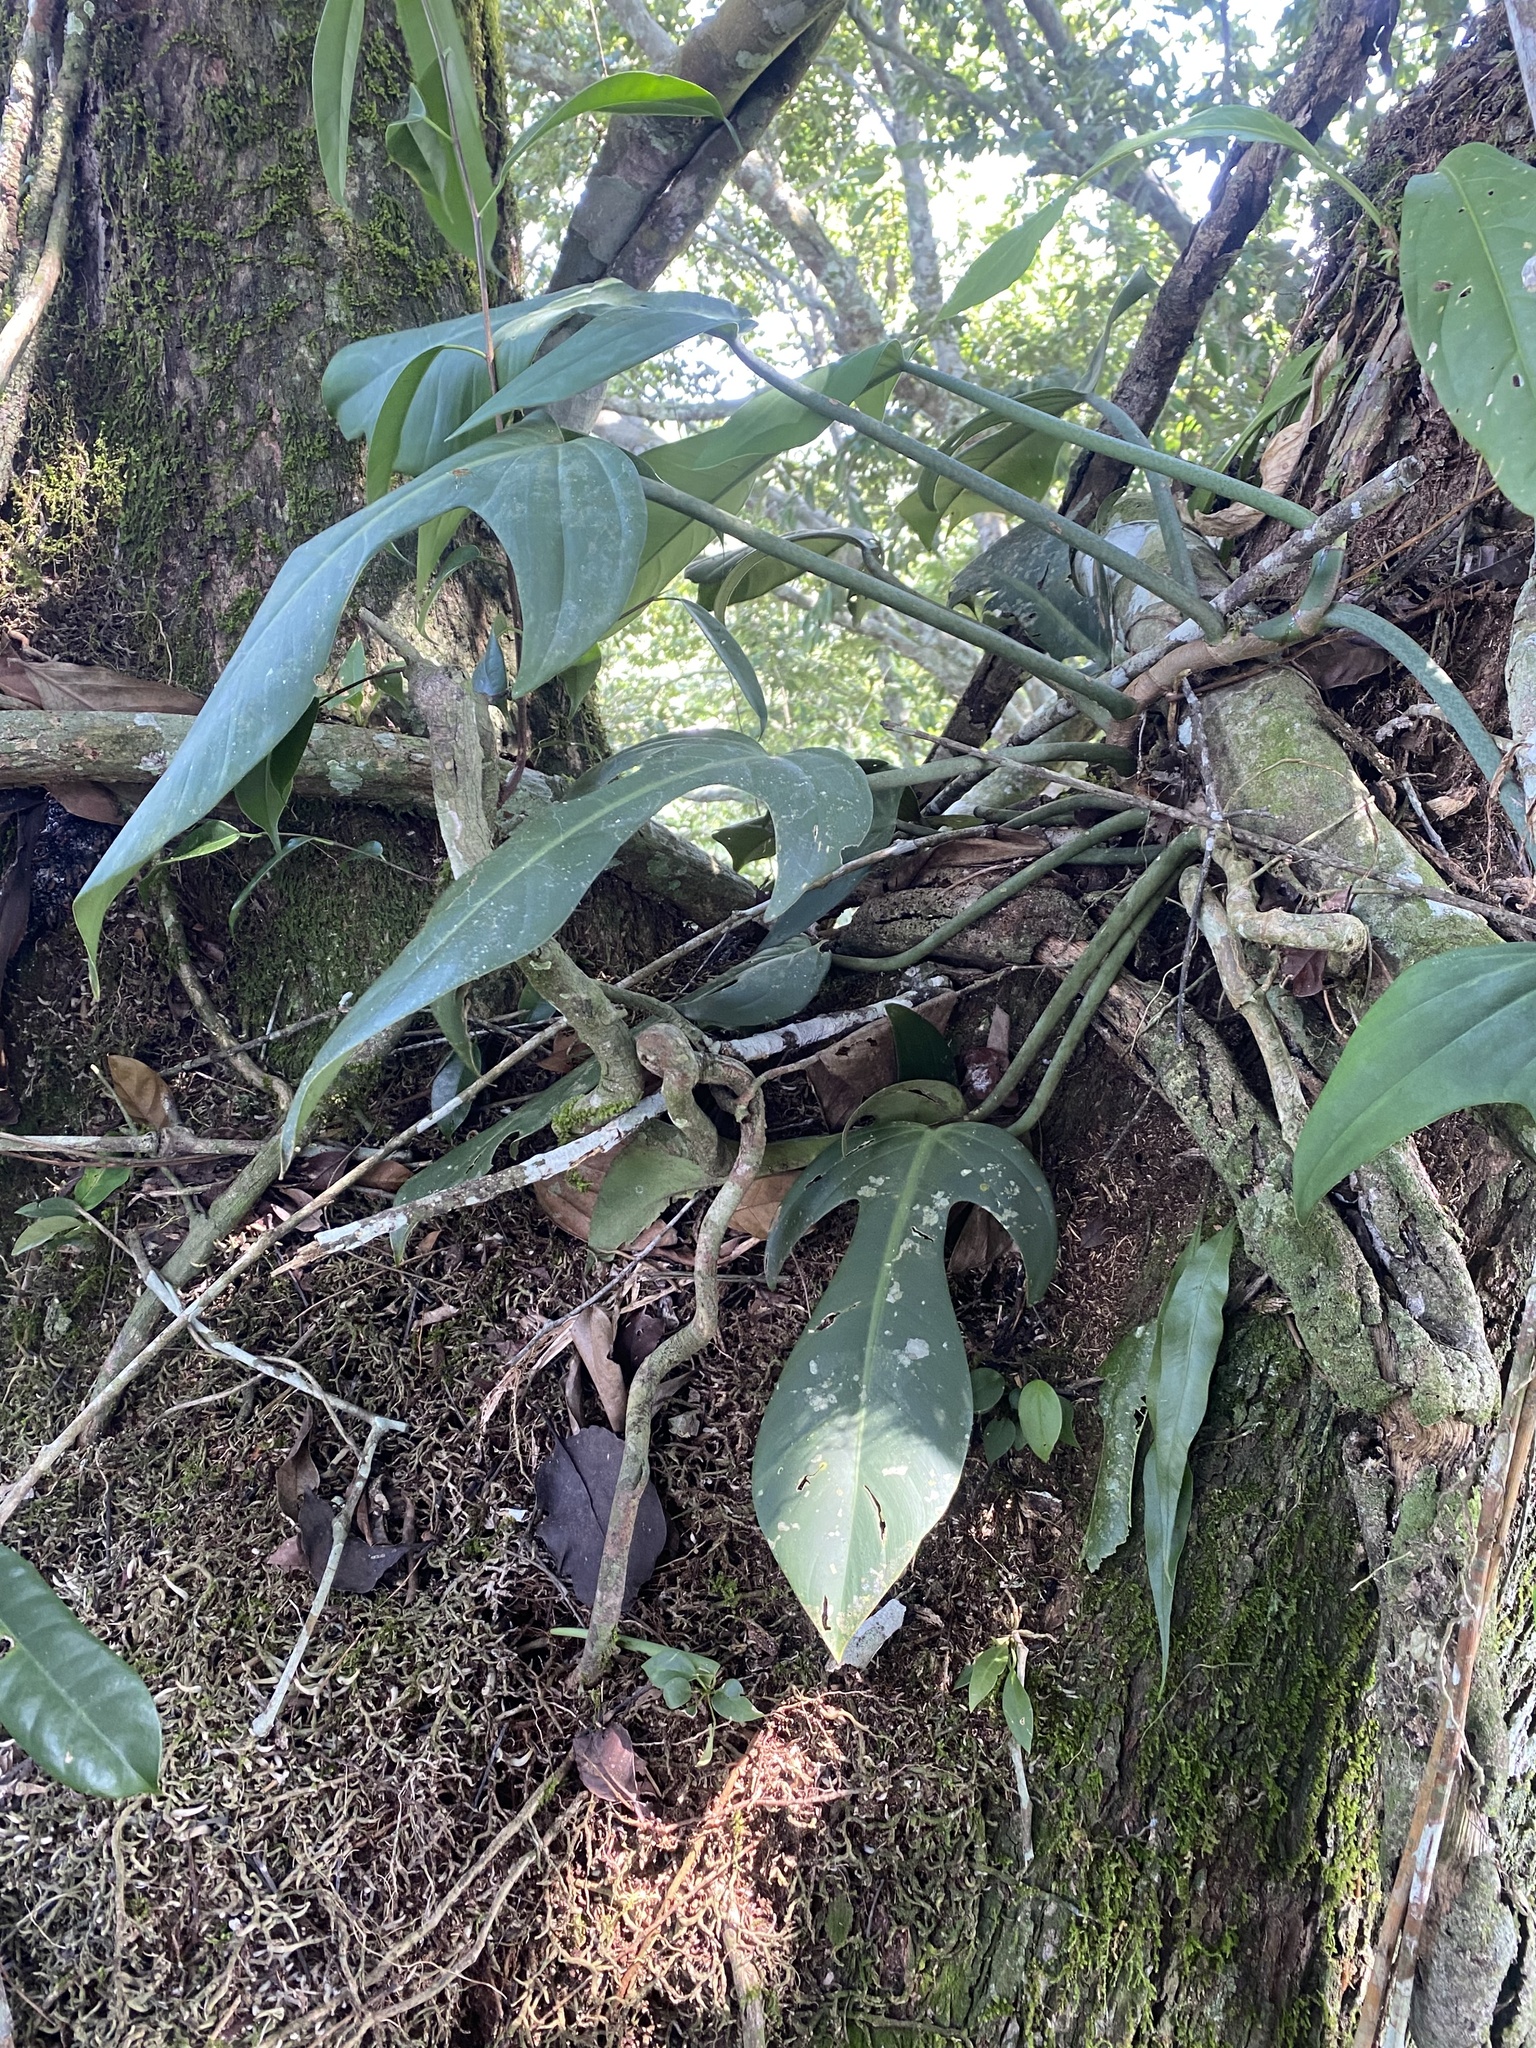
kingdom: Plantae
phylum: Tracheophyta
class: Liliopsida
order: Alismatales
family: Araceae
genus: Philodendron
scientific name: Philodendron panduriforme
